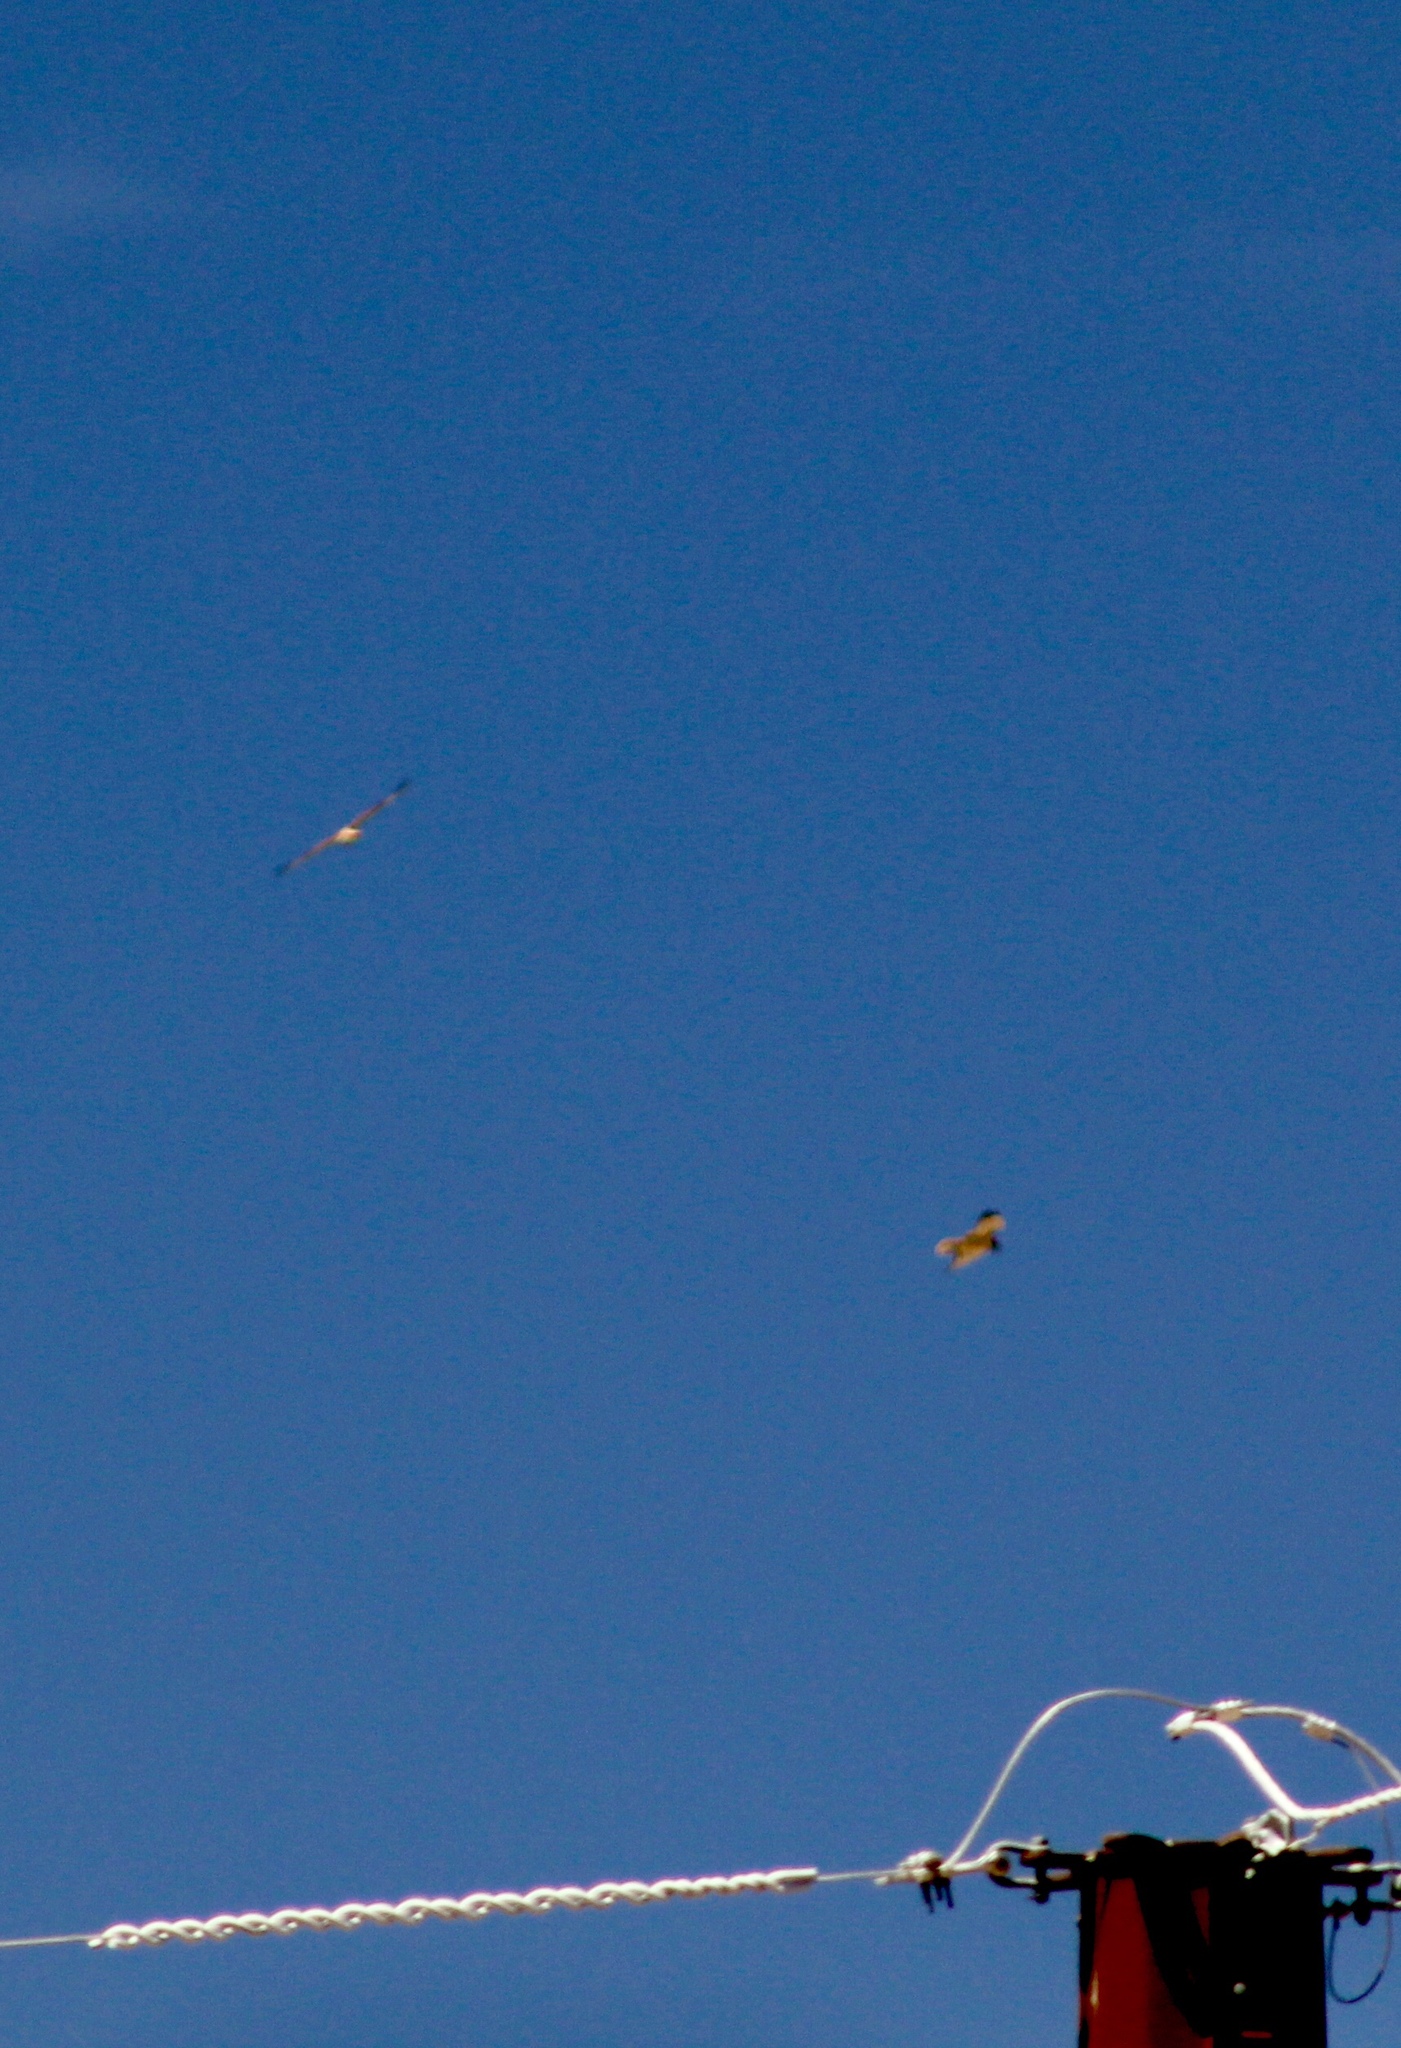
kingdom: Animalia
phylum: Chordata
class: Aves
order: Accipitriformes
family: Accipitridae
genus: Buteo
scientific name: Buteo jamaicensis
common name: Red-tailed hawk
